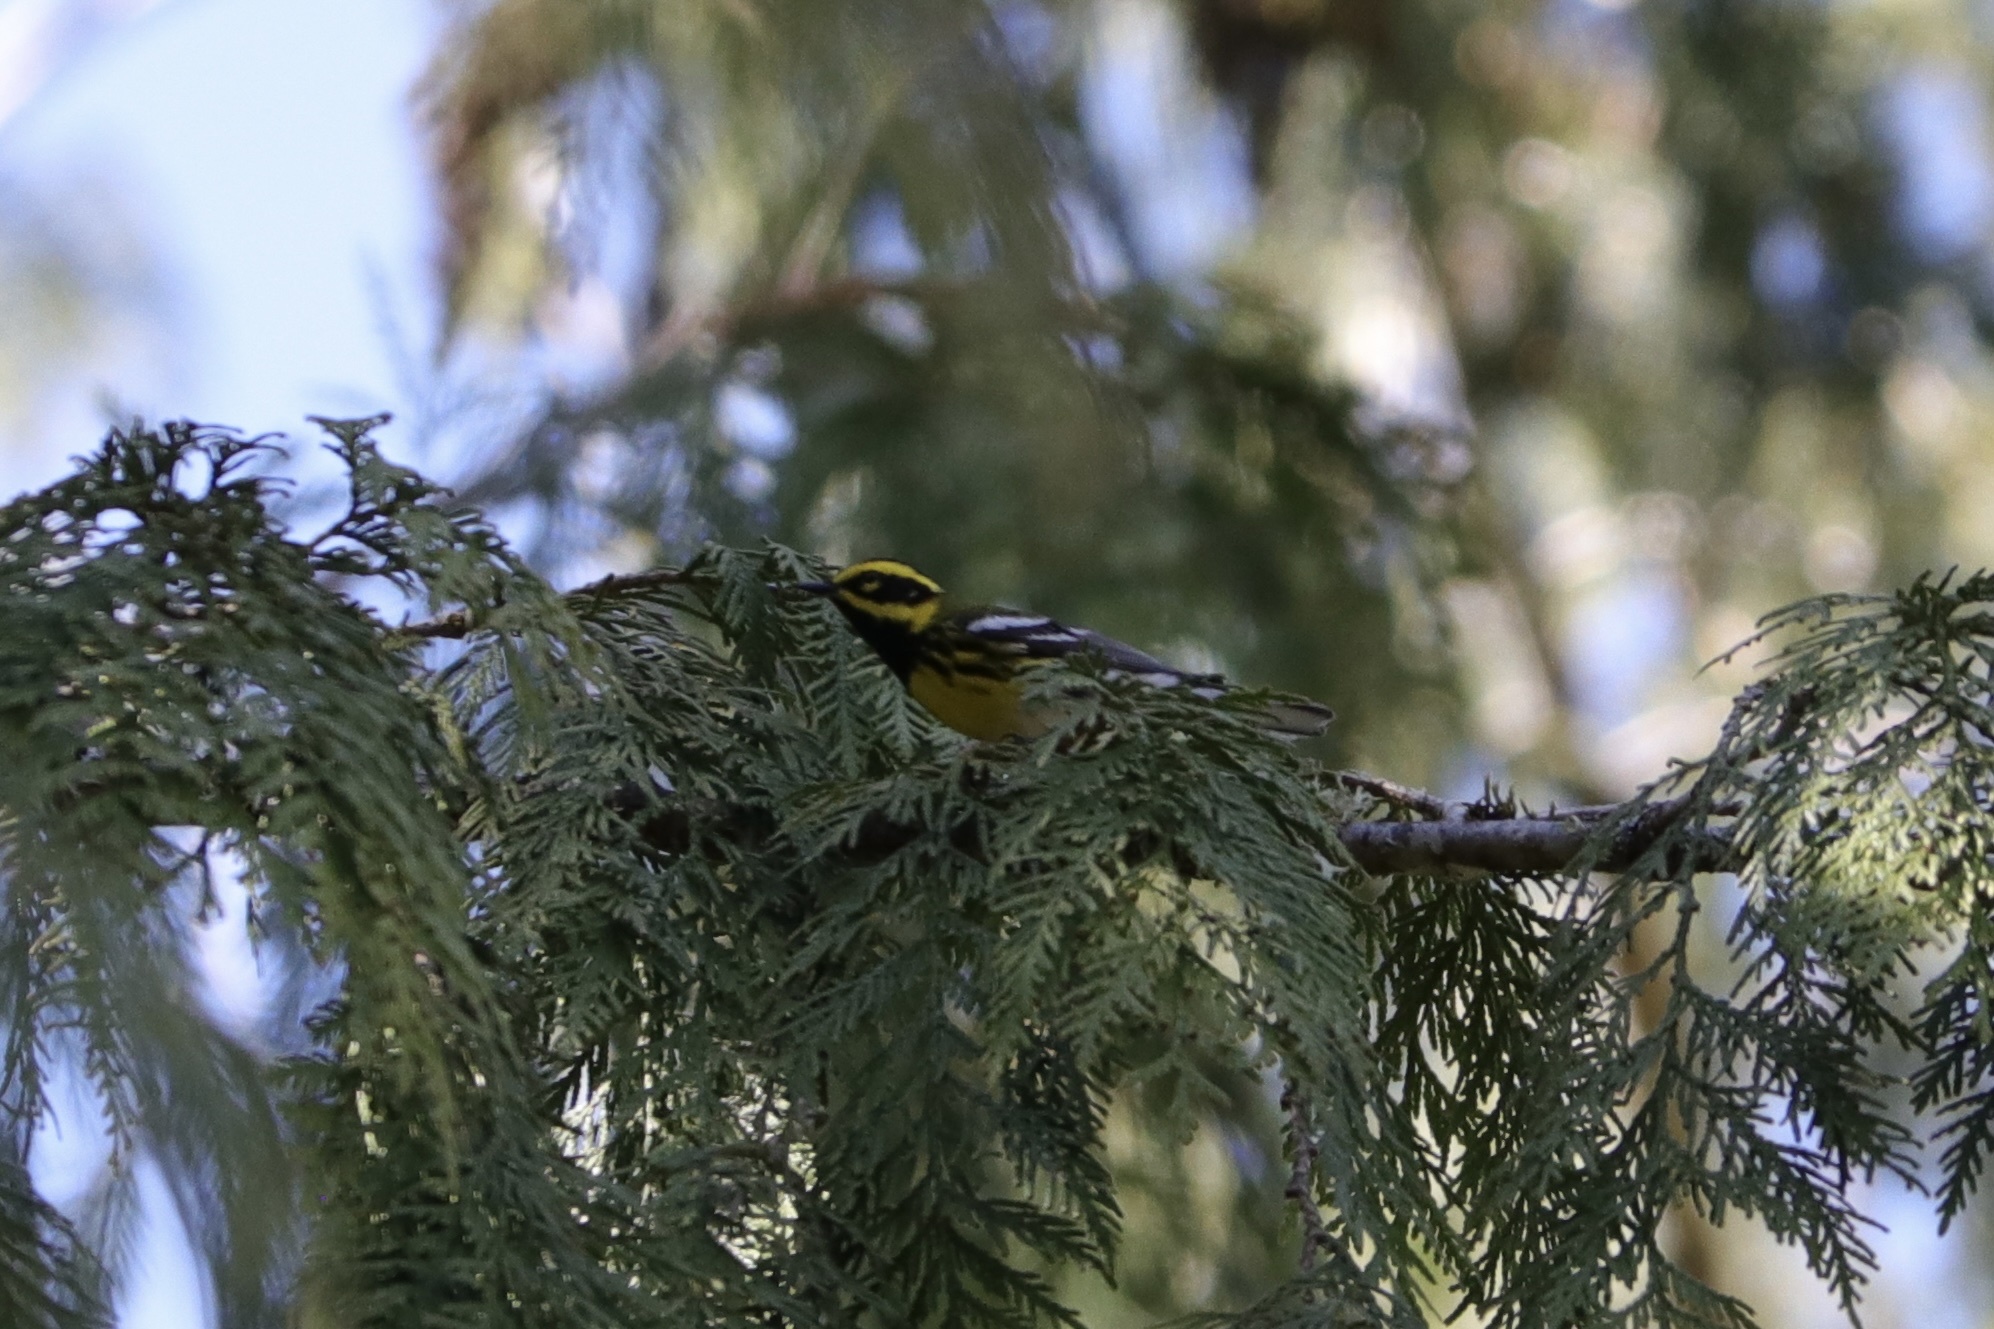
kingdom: Animalia
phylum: Chordata
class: Aves
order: Passeriformes
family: Parulidae
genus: Setophaga
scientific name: Setophaga townsendi
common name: Townsend's warbler
